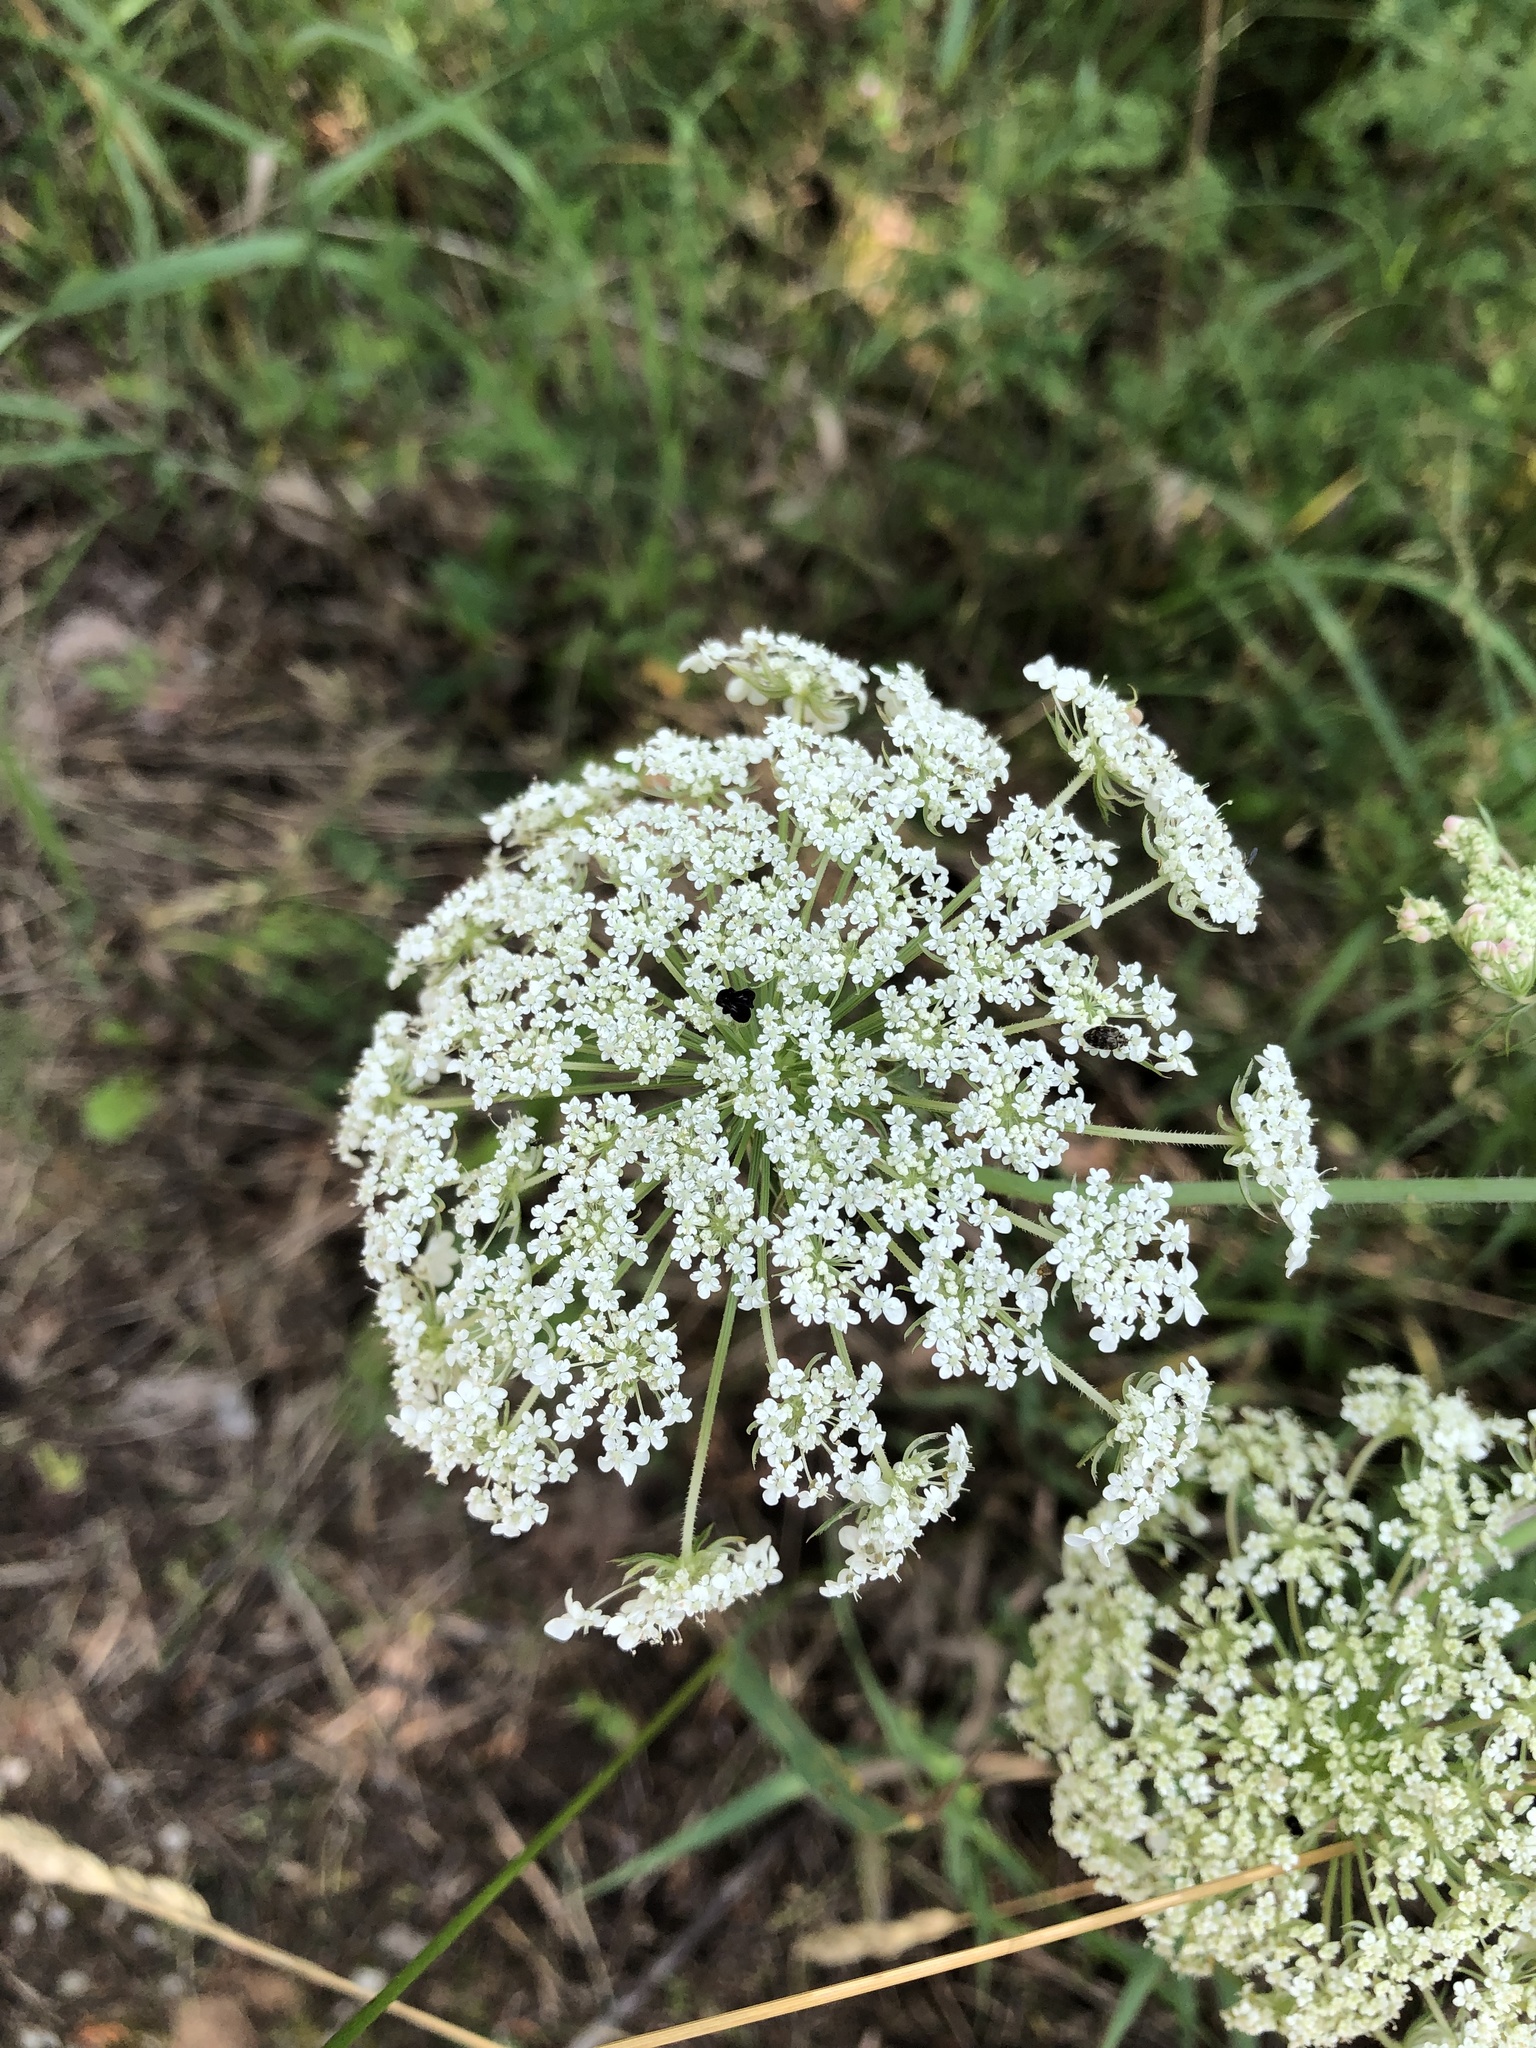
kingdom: Plantae
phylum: Tracheophyta
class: Magnoliopsida
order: Apiales
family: Apiaceae
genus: Daucus
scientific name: Daucus carota
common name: Wild carrot
